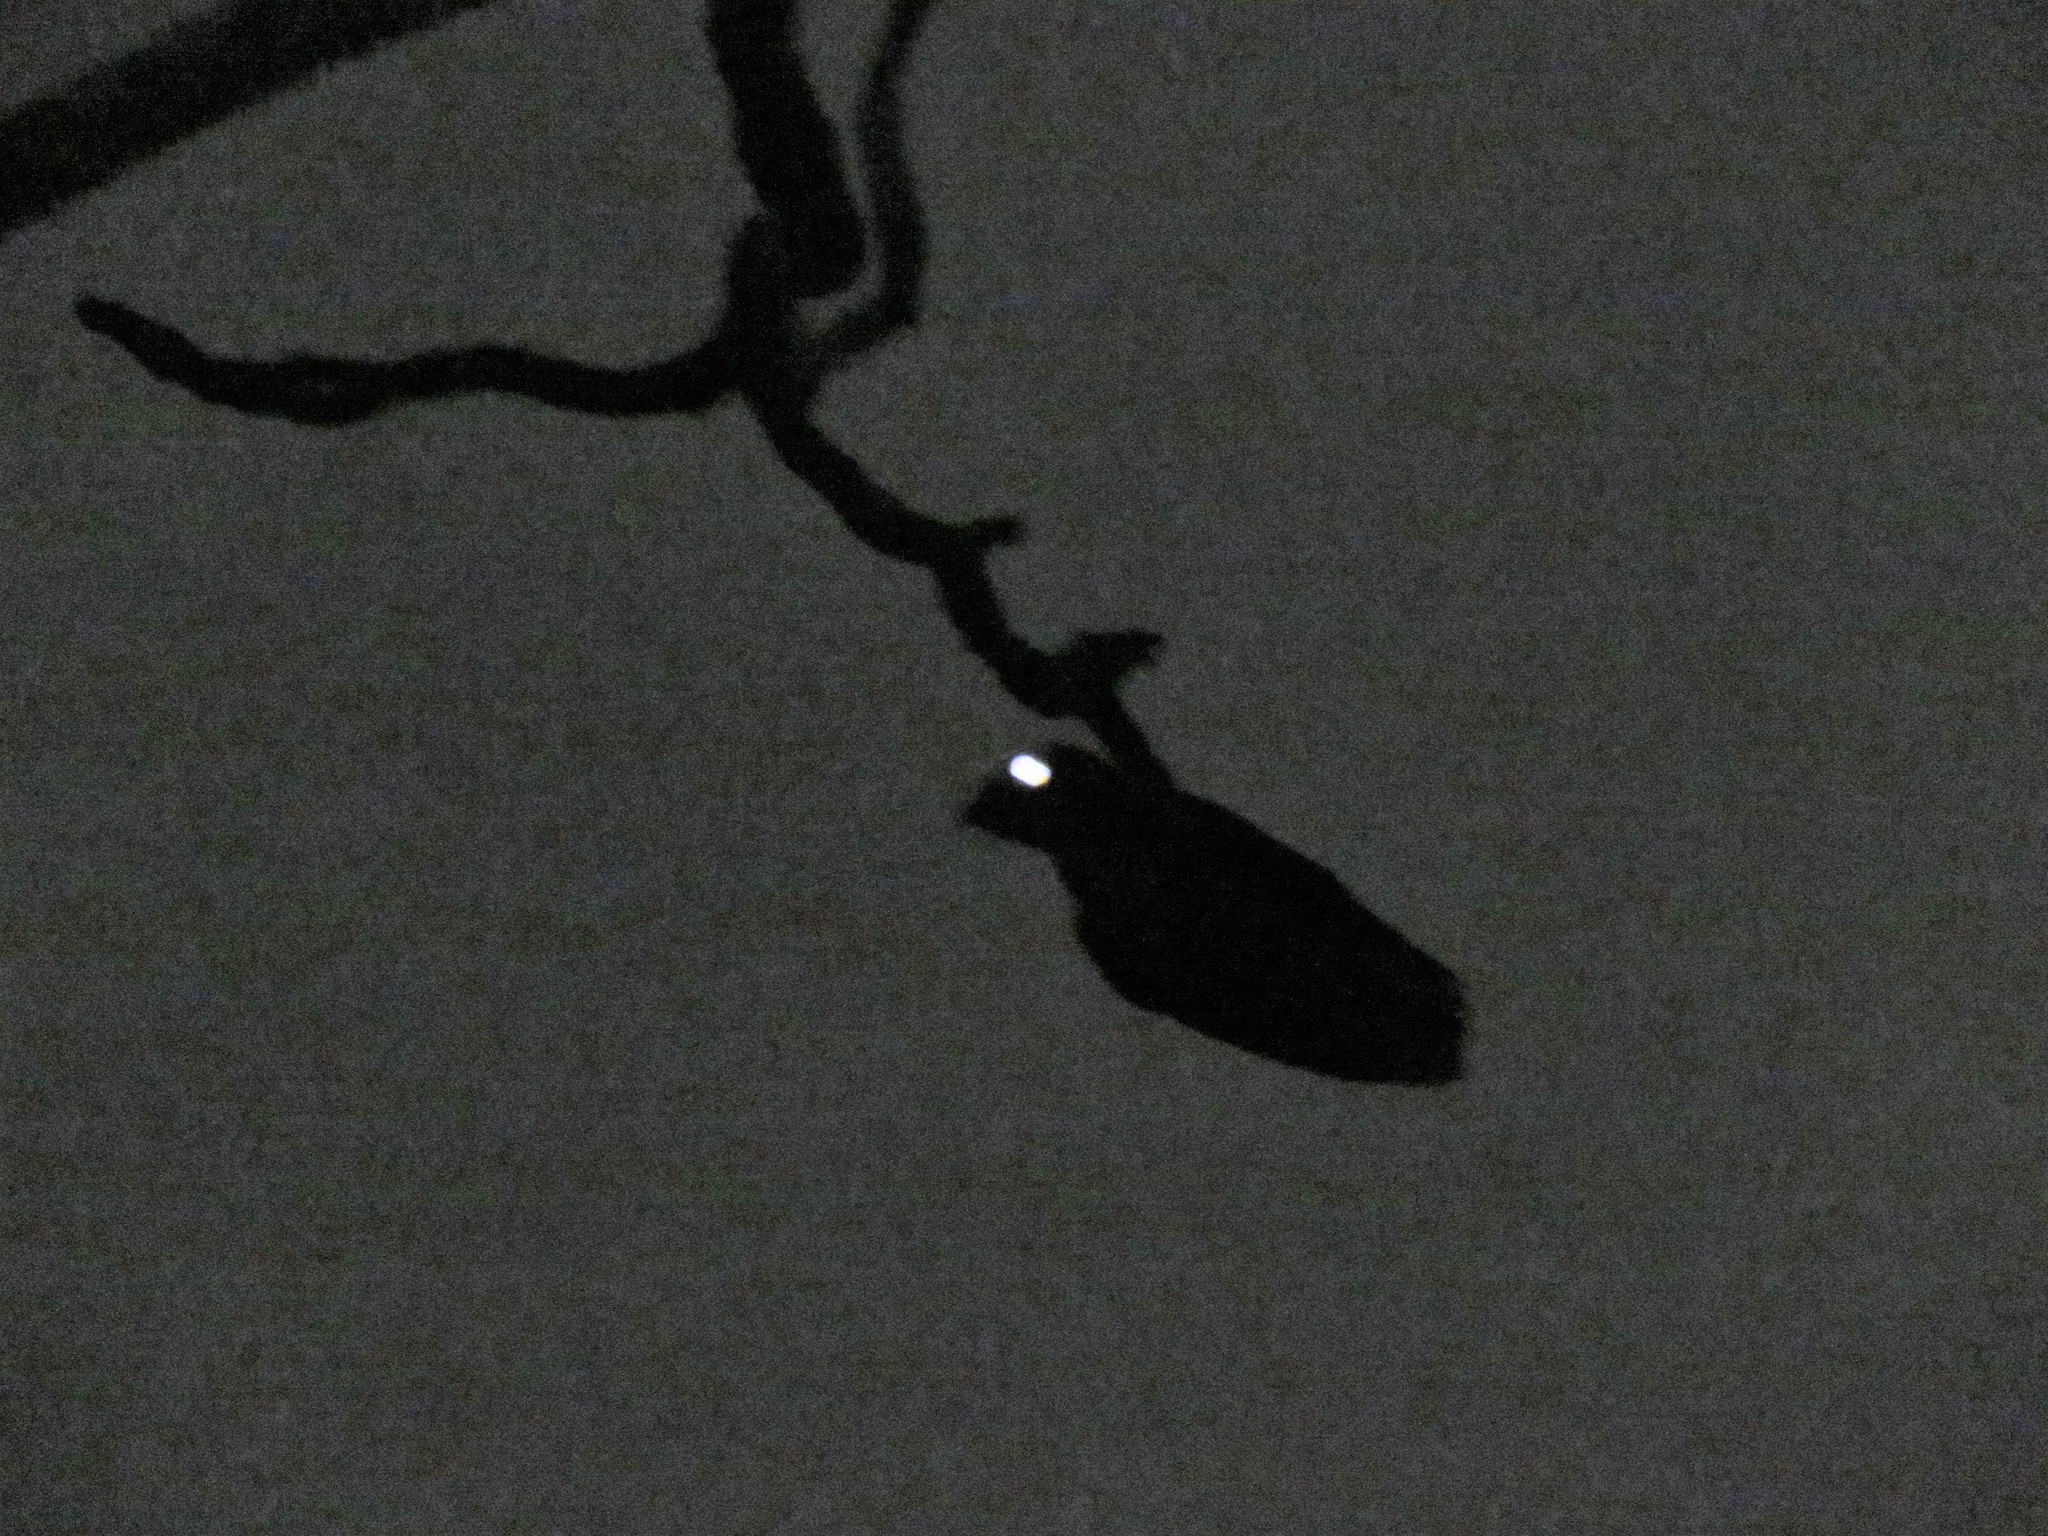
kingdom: Animalia
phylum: Chordata
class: Aves
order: Caprimulgiformes
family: Caprimulgidae
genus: Antrostomus
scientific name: Antrostomus carolinensis
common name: Chuck-will's-widow
